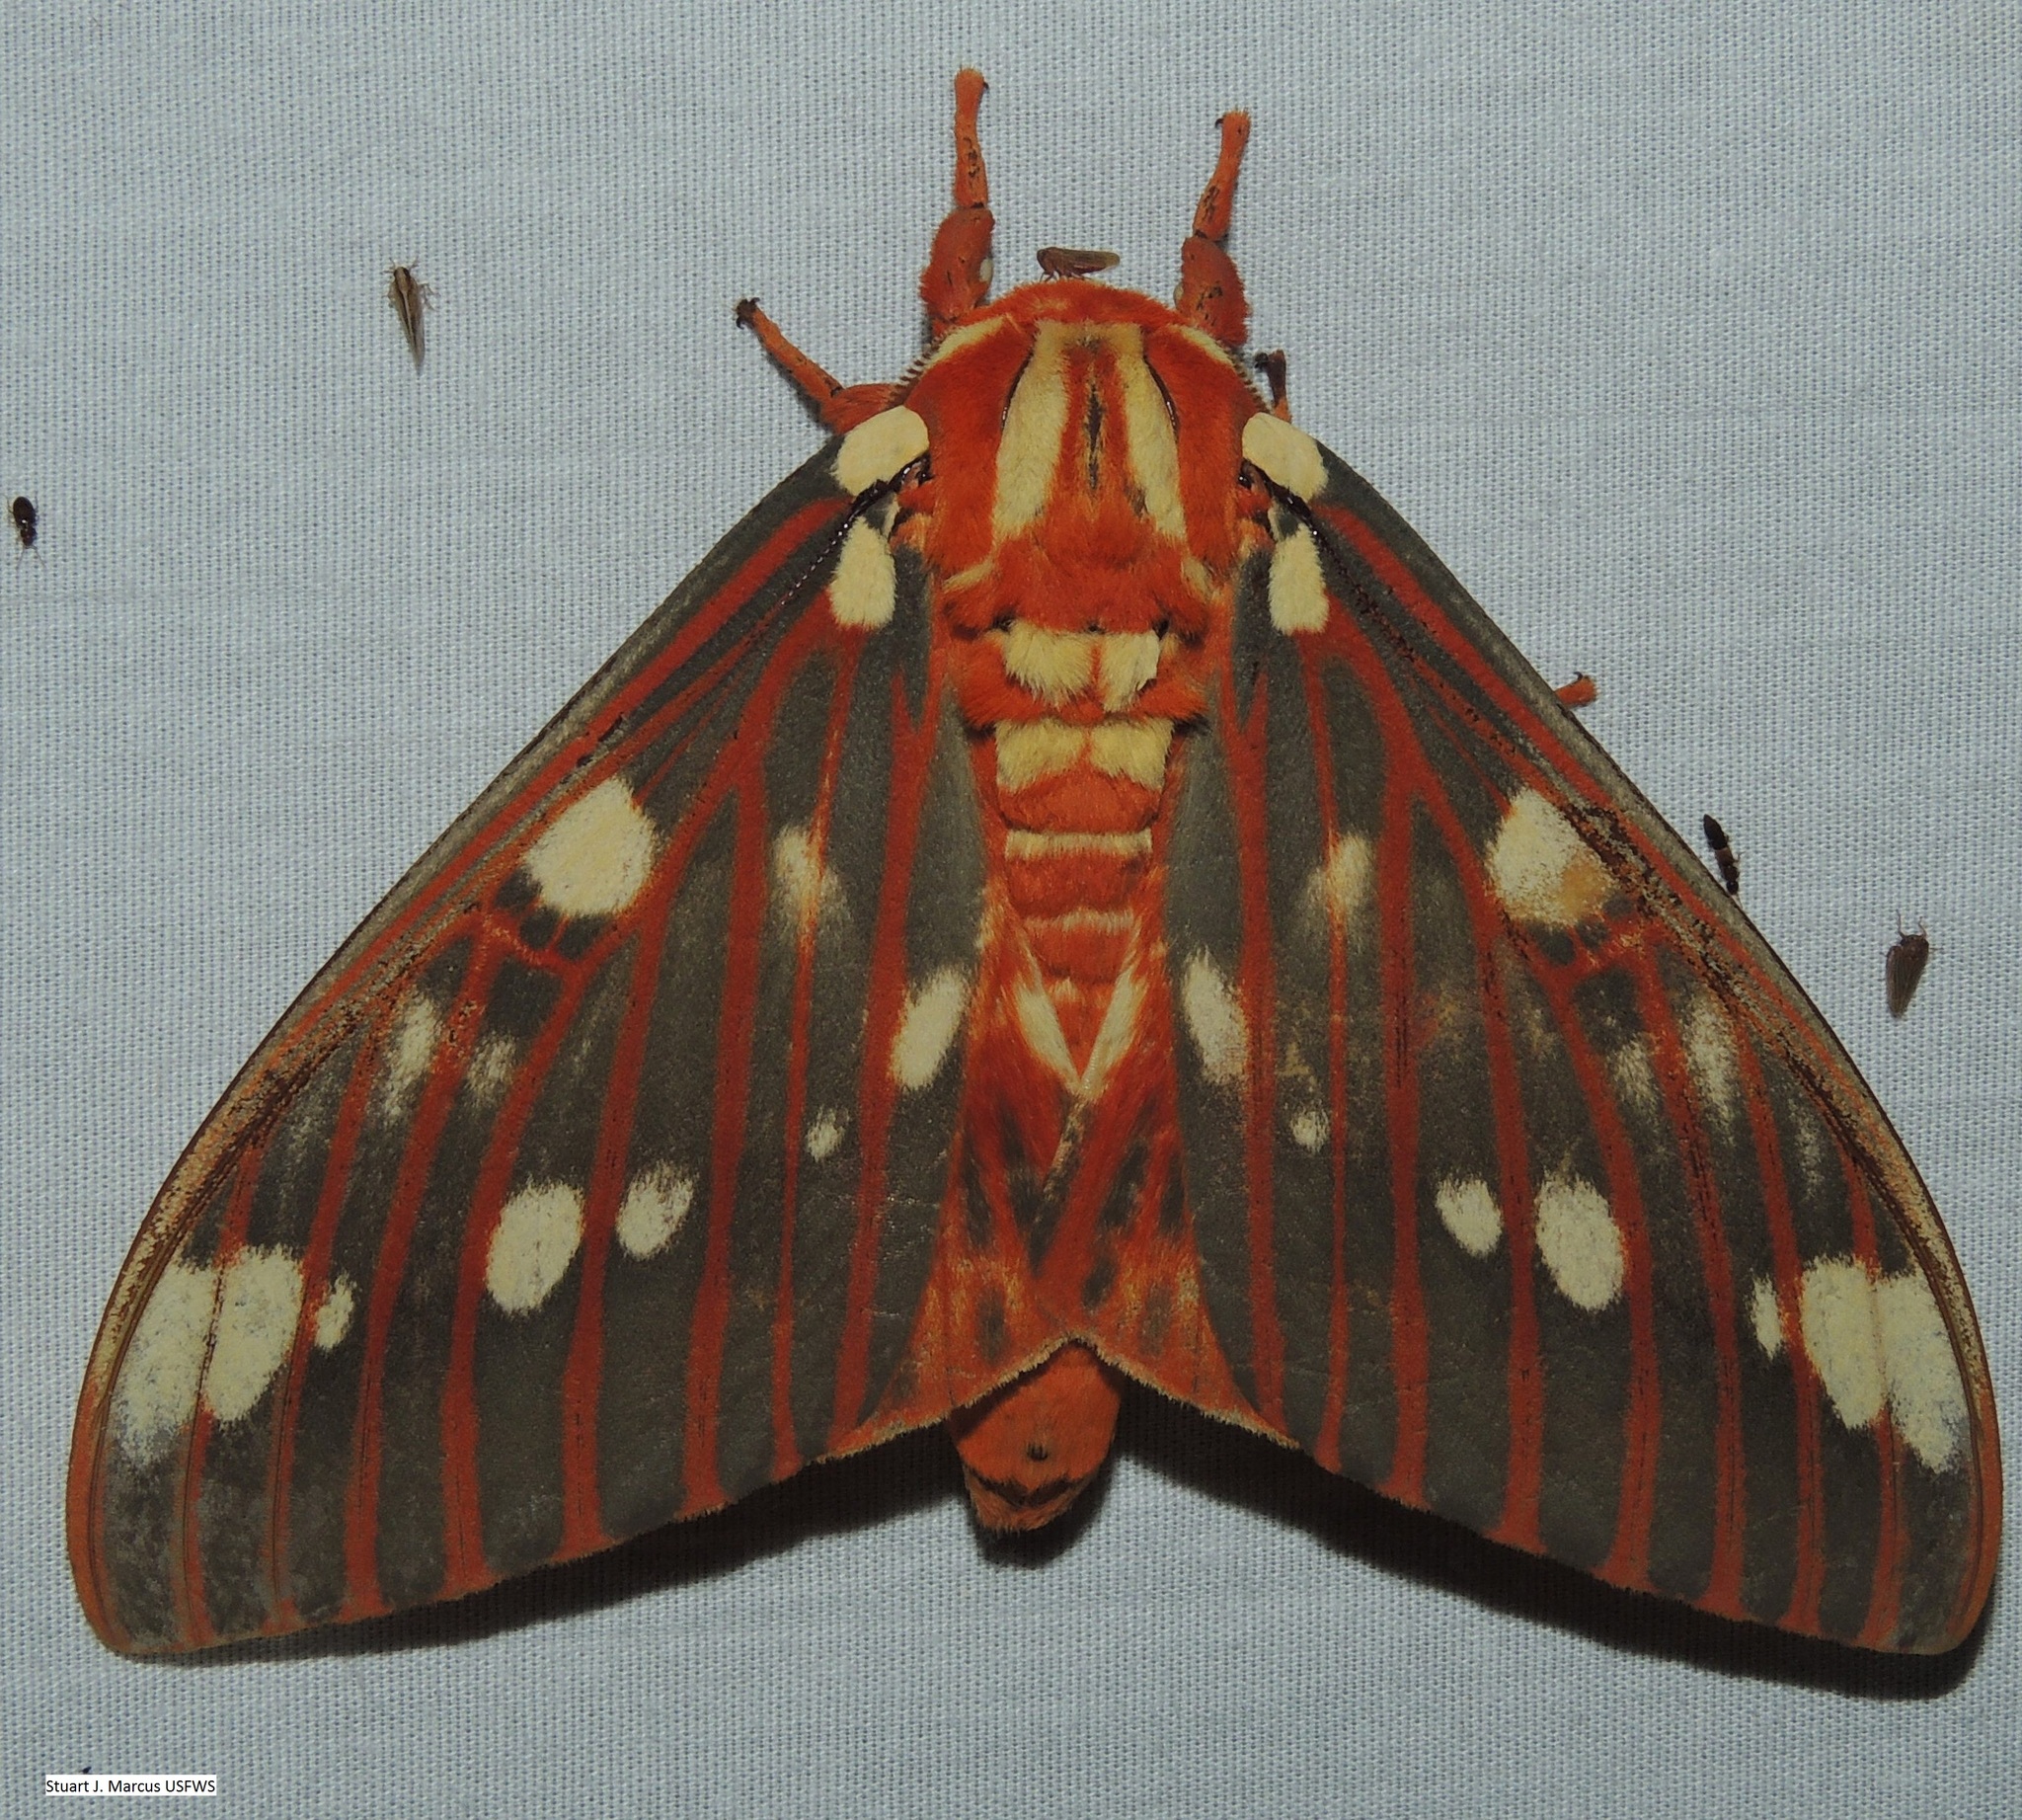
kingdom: Animalia
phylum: Arthropoda
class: Insecta
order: Lepidoptera
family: Saturniidae
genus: Citheronia
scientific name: Citheronia regalis
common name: Hickory horned devil
